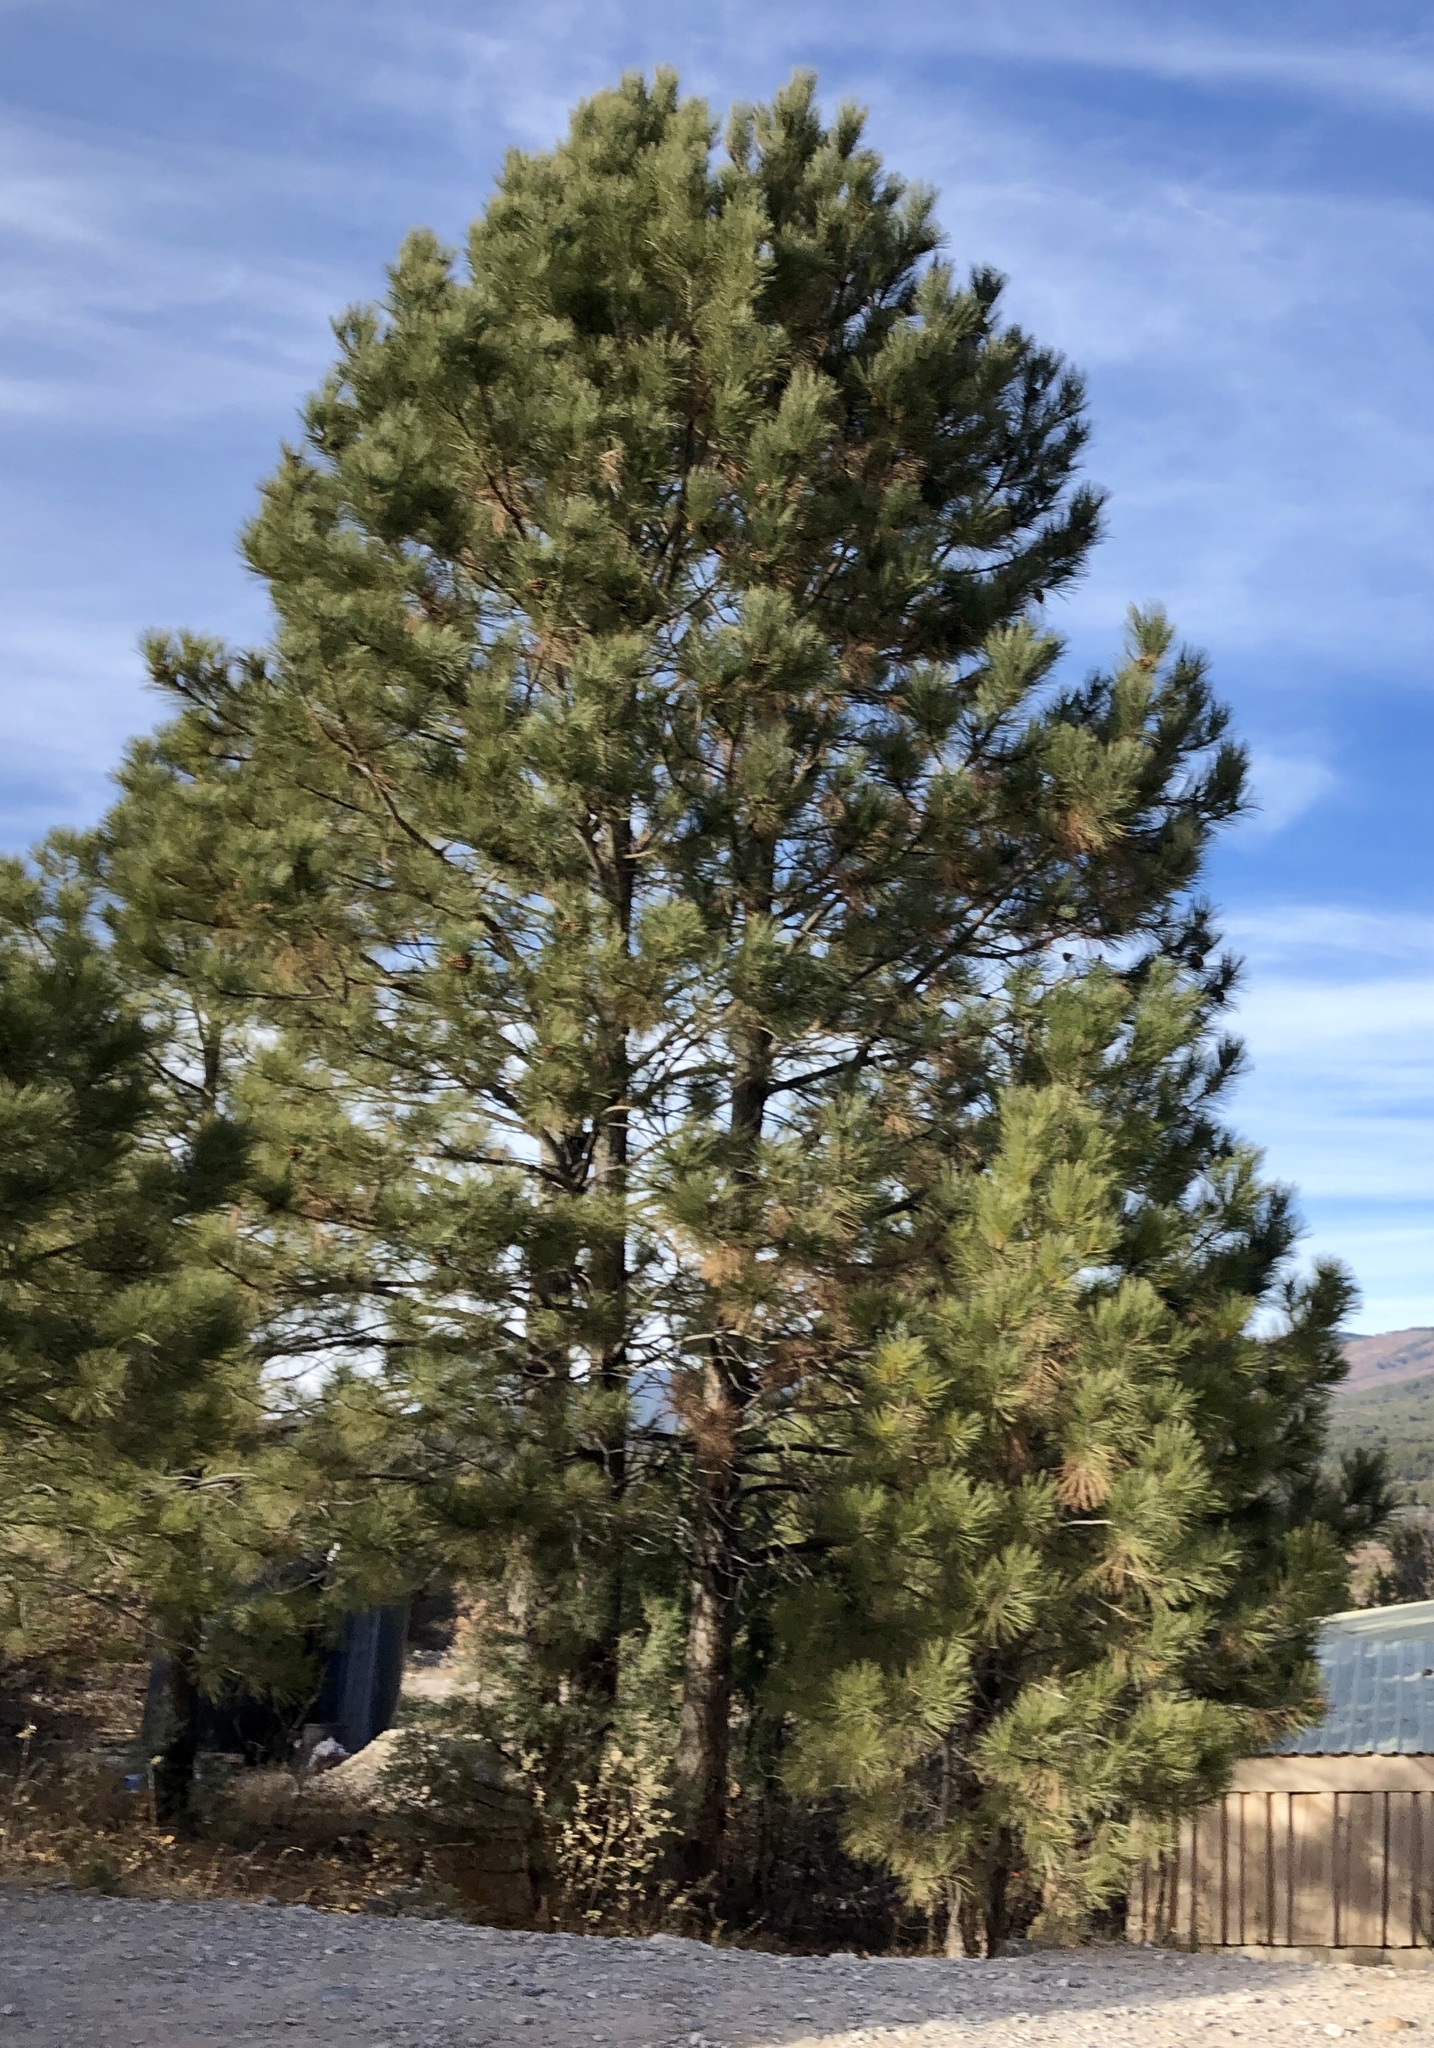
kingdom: Plantae
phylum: Tracheophyta
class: Pinopsida
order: Pinales
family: Pinaceae
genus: Pinus
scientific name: Pinus ponderosa
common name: Western yellow-pine
